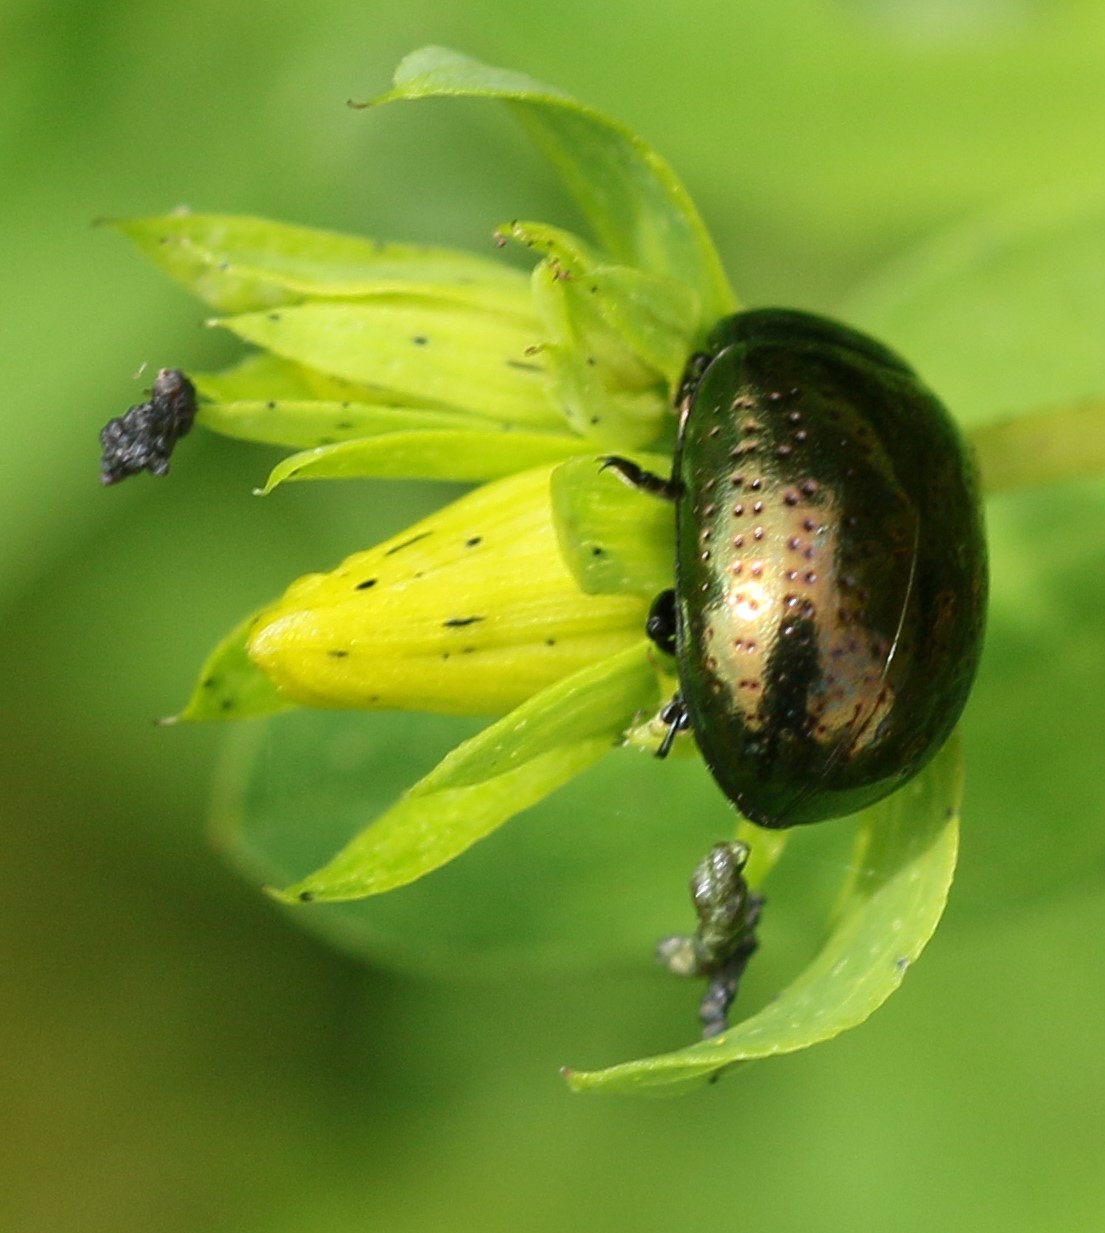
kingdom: Animalia
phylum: Arthropoda
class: Insecta
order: Coleoptera
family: Chrysomelidae
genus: Chrysolina
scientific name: Chrysolina hyperici
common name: St. johnswort beetle
